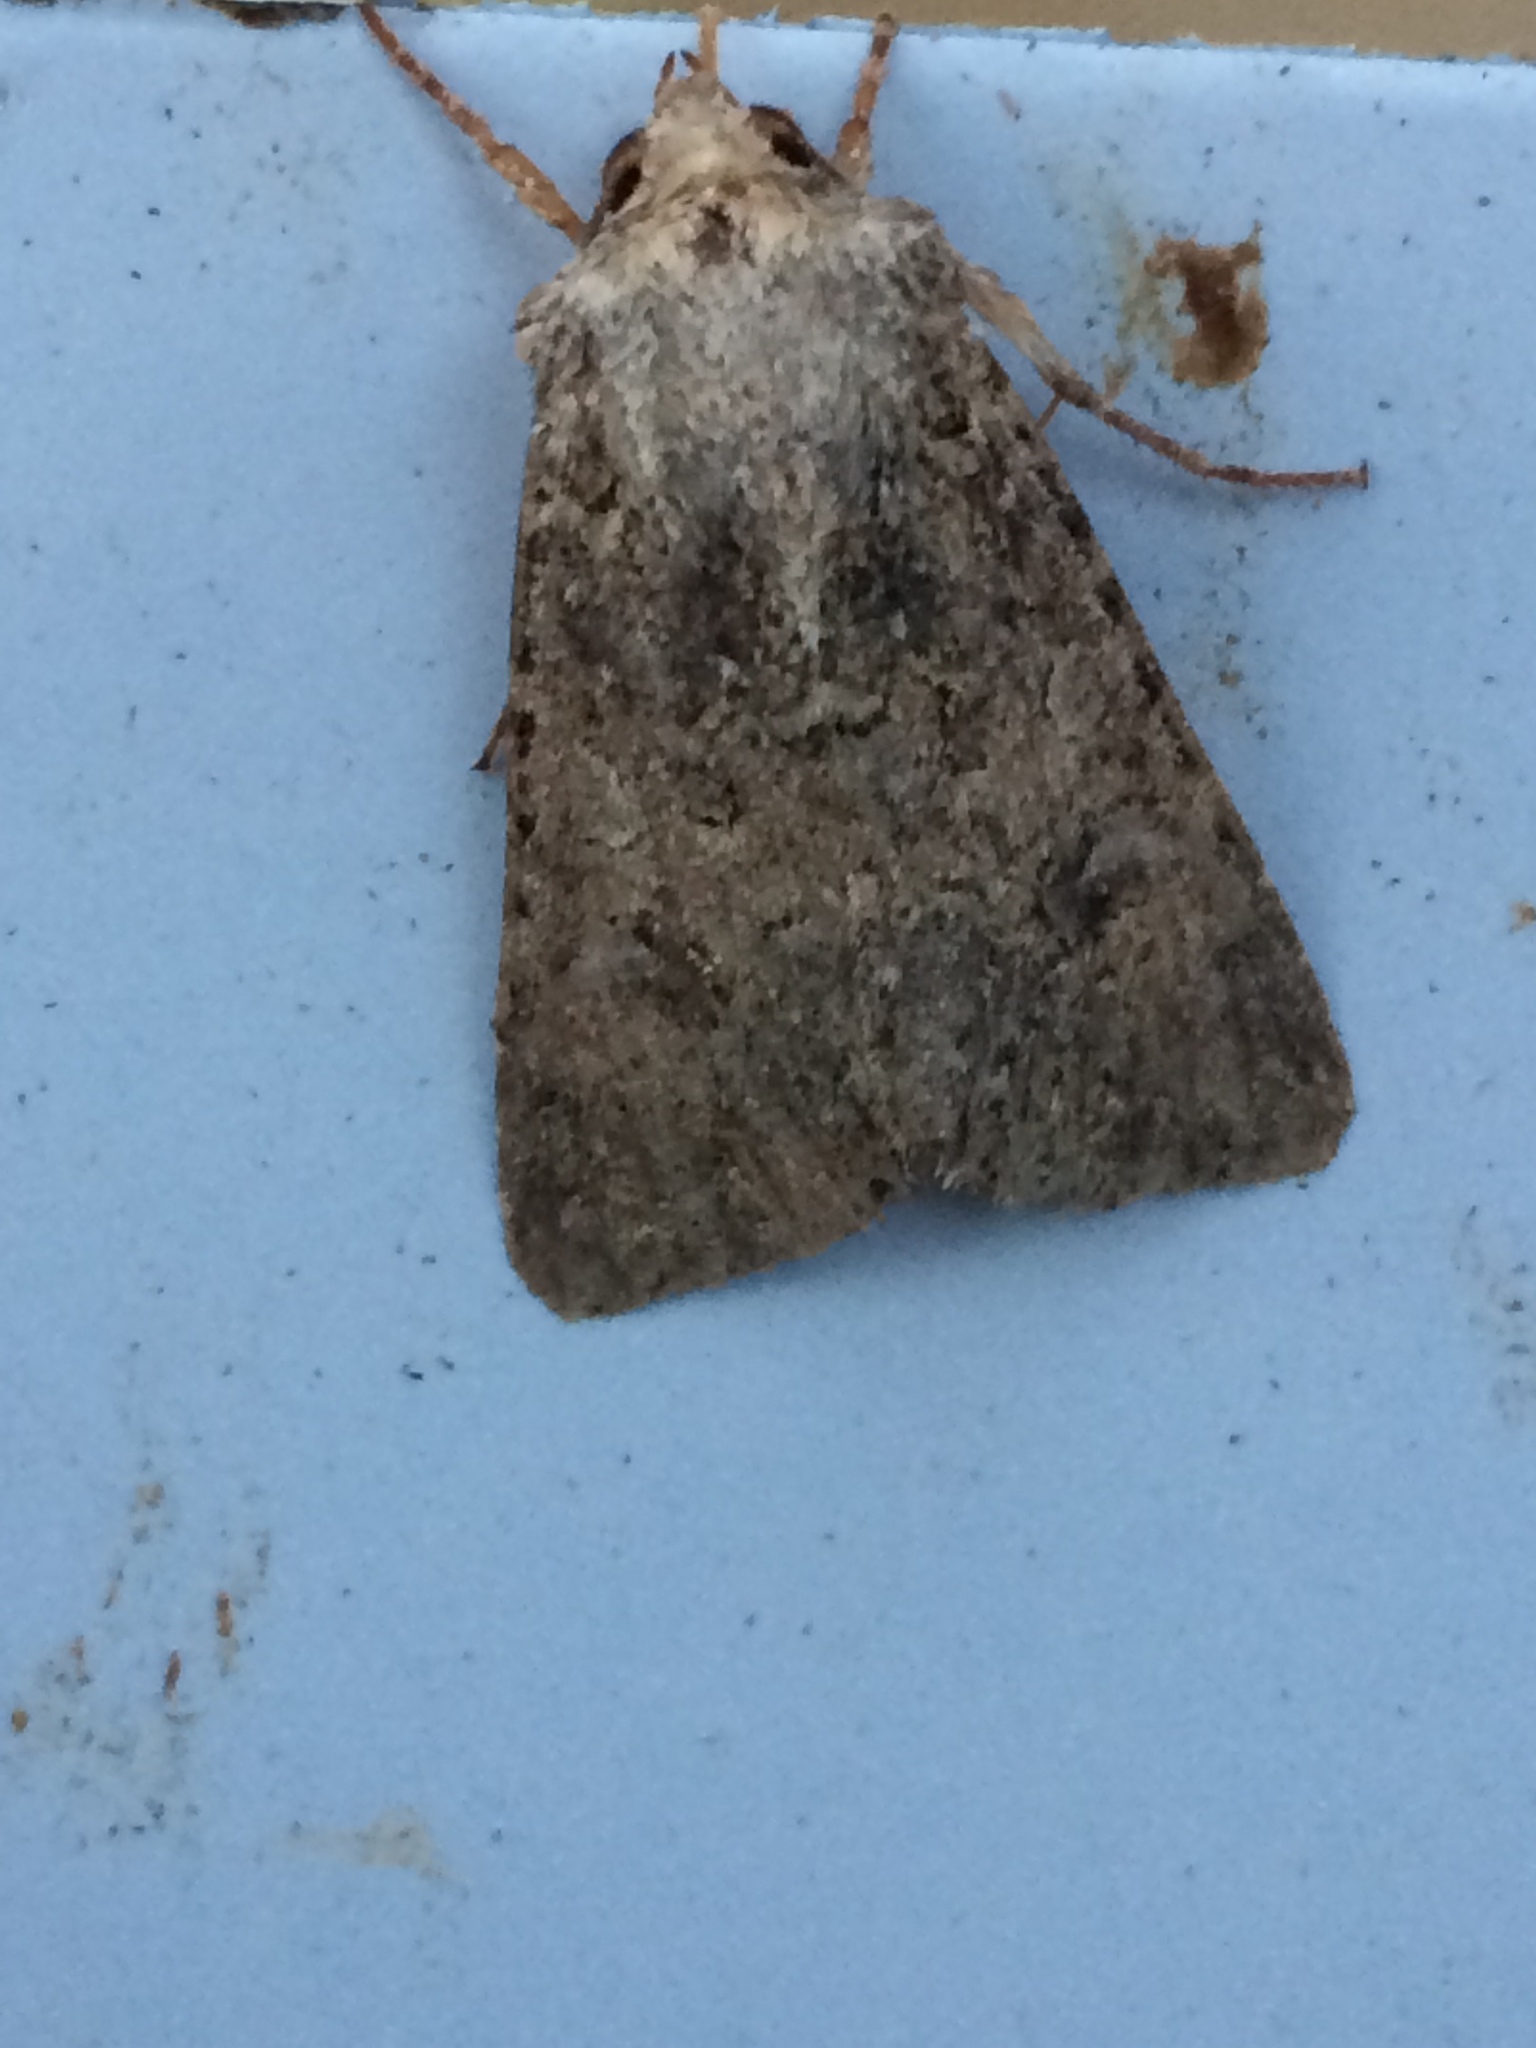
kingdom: Animalia
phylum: Arthropoda
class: Insecta
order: Lepidoptera
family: Noctuidae
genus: Anarta
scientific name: Anarta trifolii
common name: Clover cutworm moth
